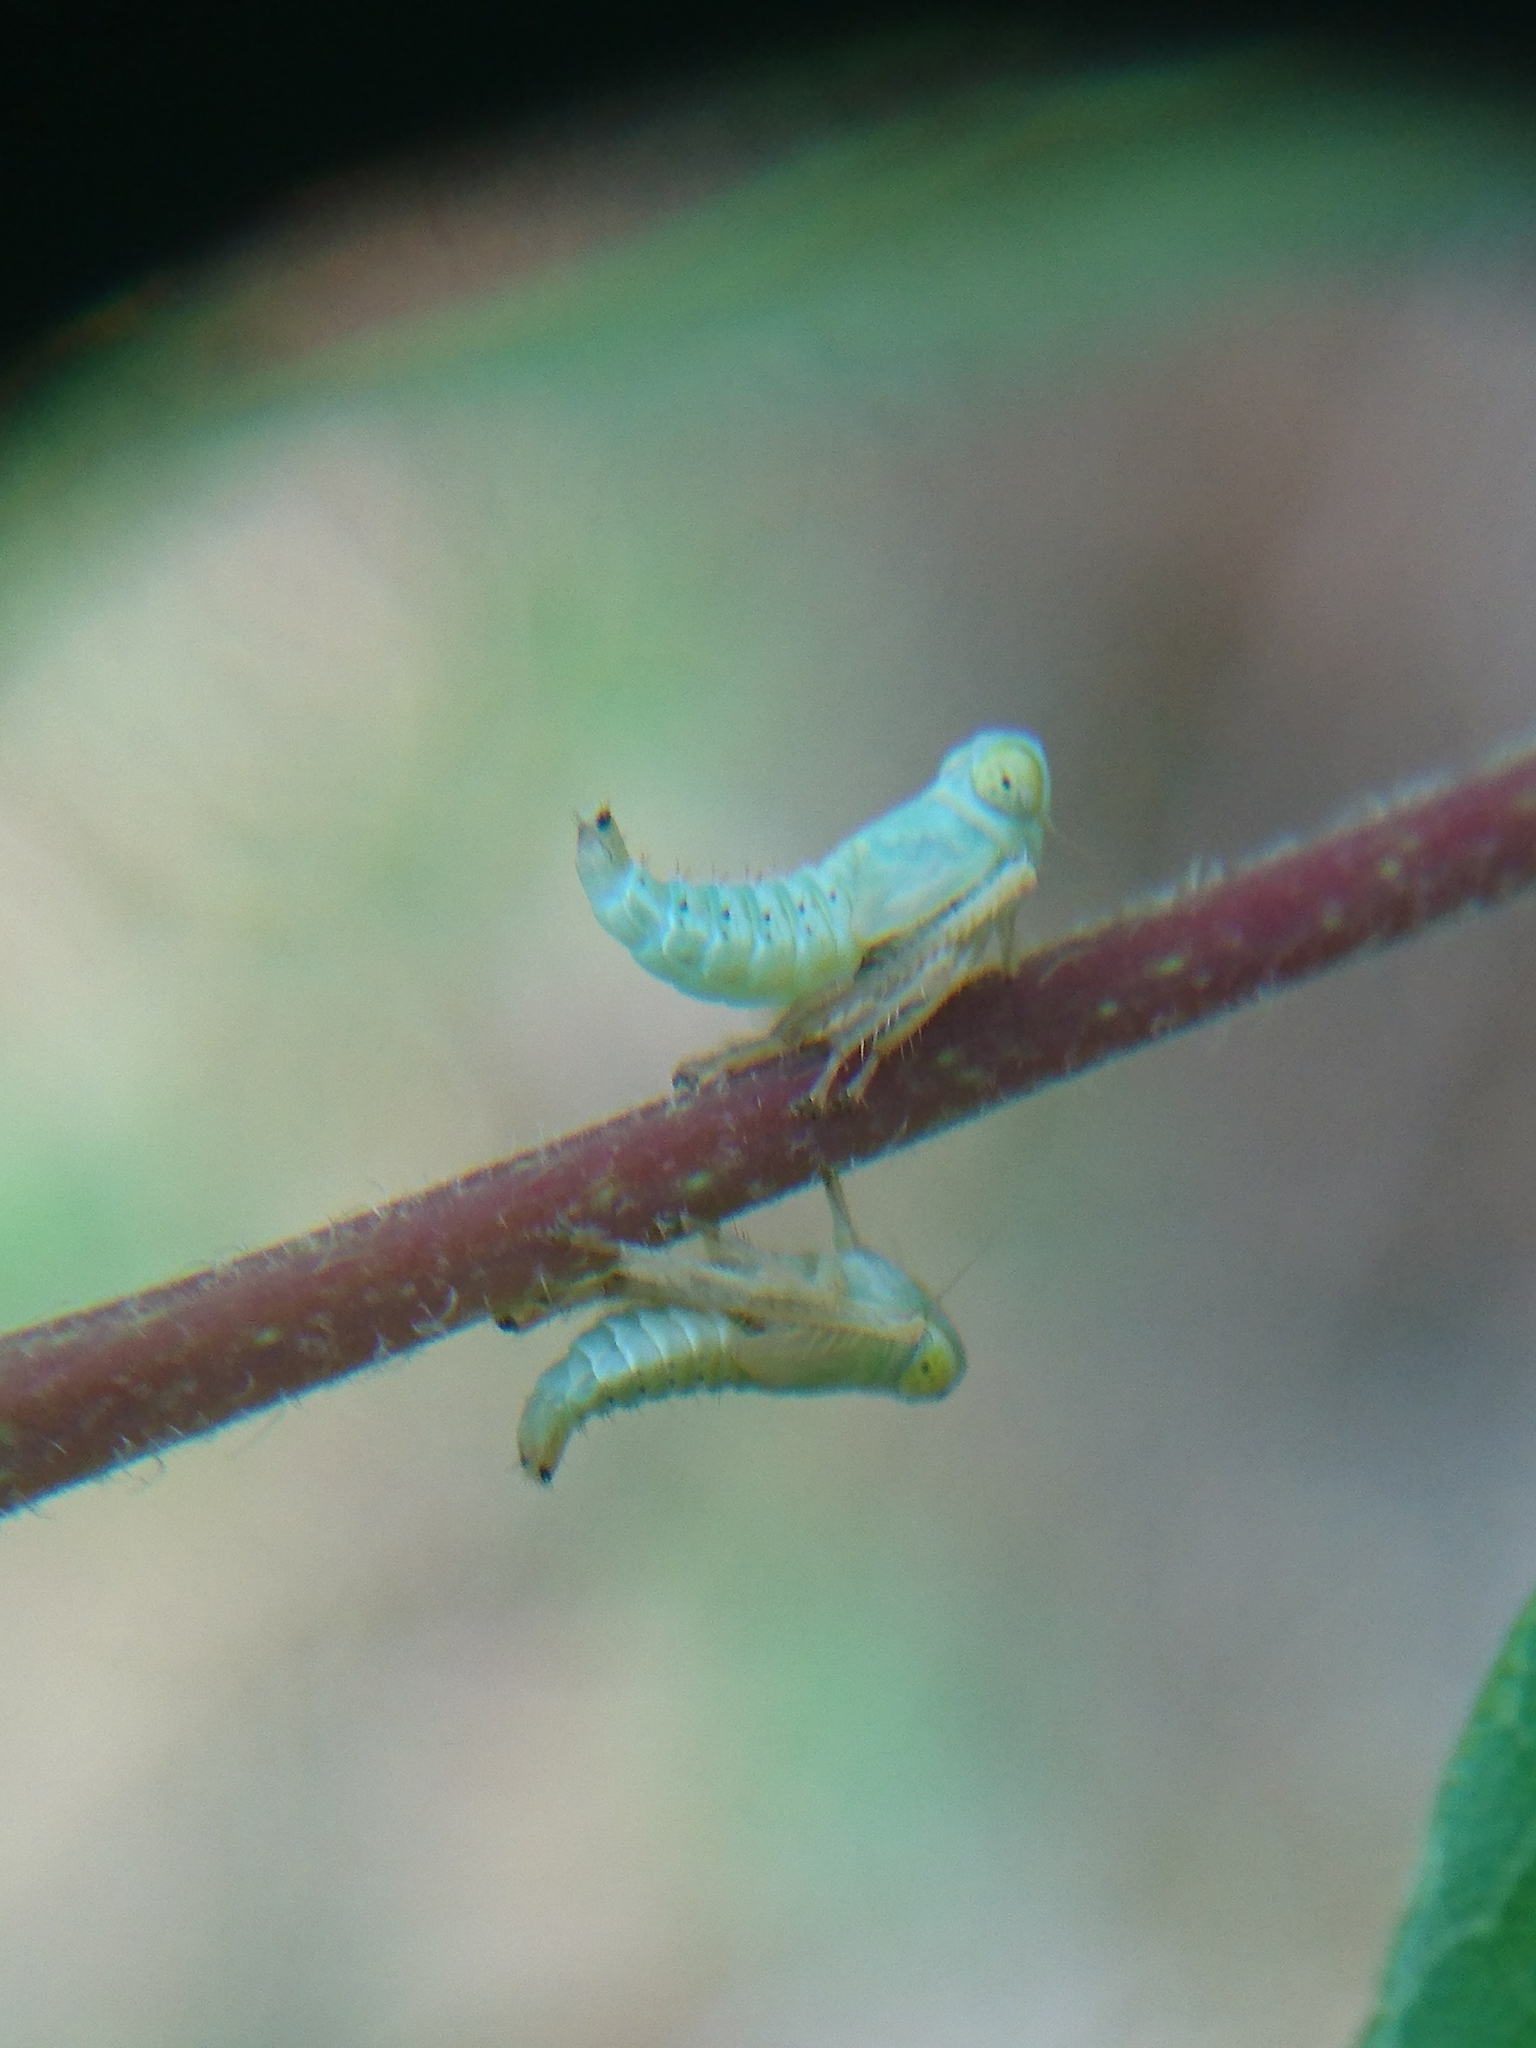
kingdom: Animalia
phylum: Arthropoda
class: Insecta
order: Hemiptera
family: Cicadellidae
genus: Jikradia
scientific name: Jikradia olitoria
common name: Coppery leafhopper
